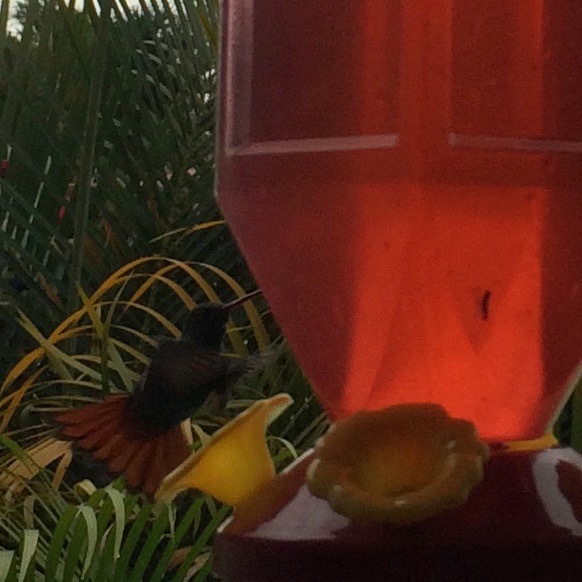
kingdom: Animalia
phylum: Chordata
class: Aves
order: Apodiformes
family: Trochilidae
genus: Amazilia
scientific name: Amazilia tzacatl
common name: Rufous-tailed hummingbird
